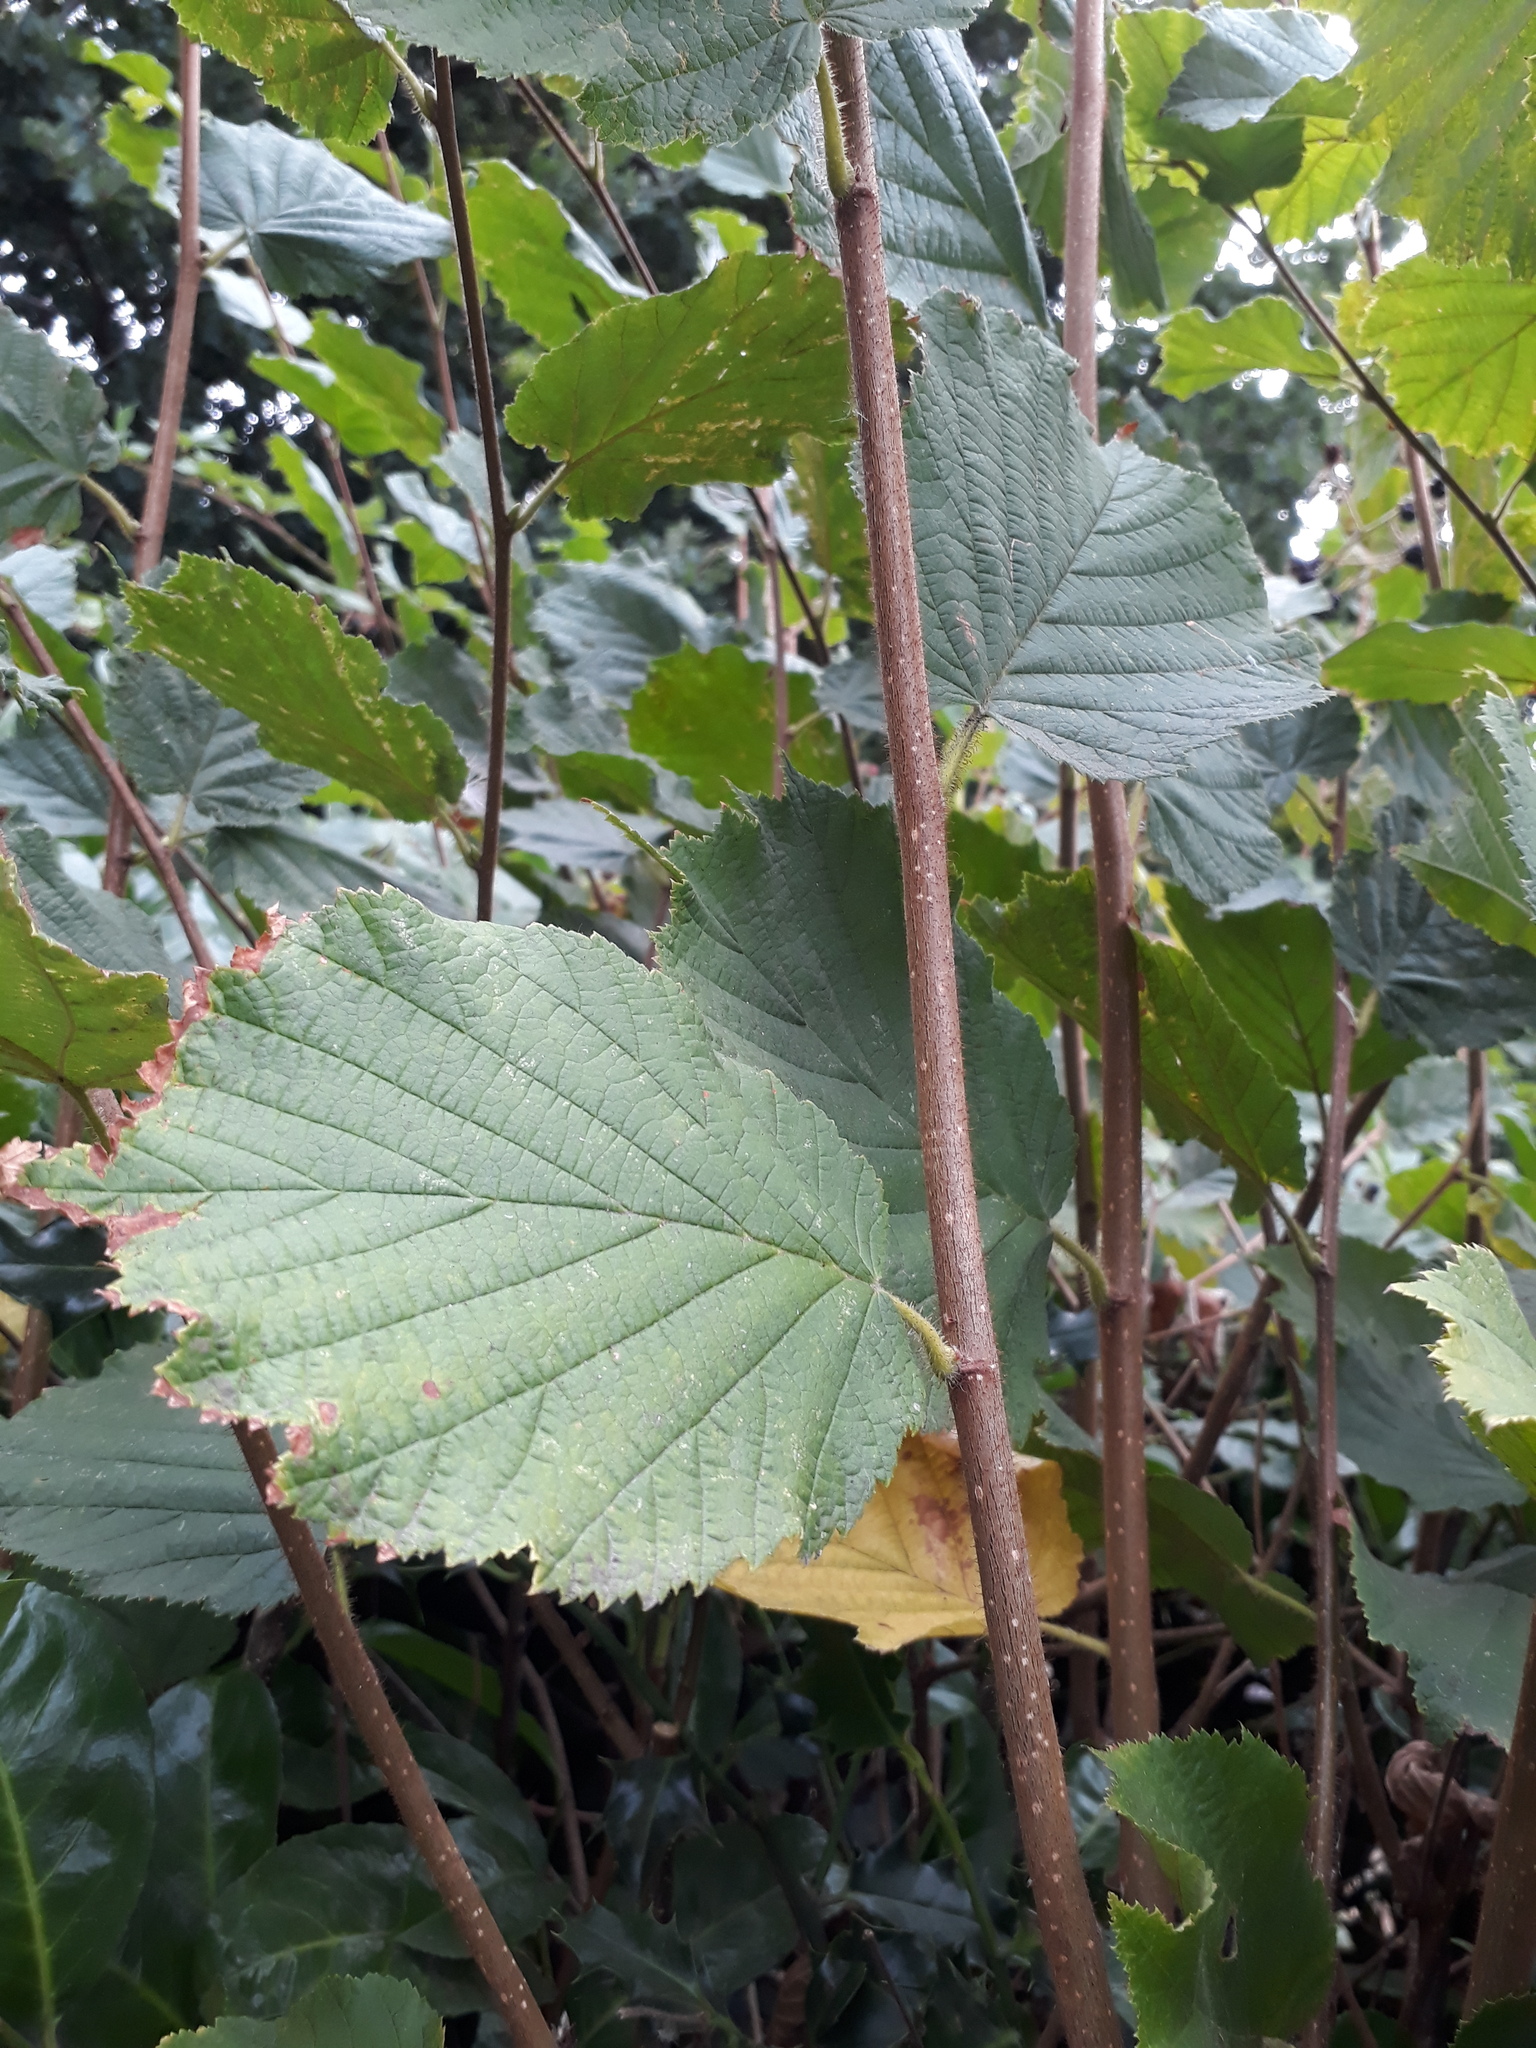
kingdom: Plantae
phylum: Tracheophyta
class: Magnoliopsida
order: Fagales
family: Betulaceae
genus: Corylus
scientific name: Corylus avellana
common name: European hazel
